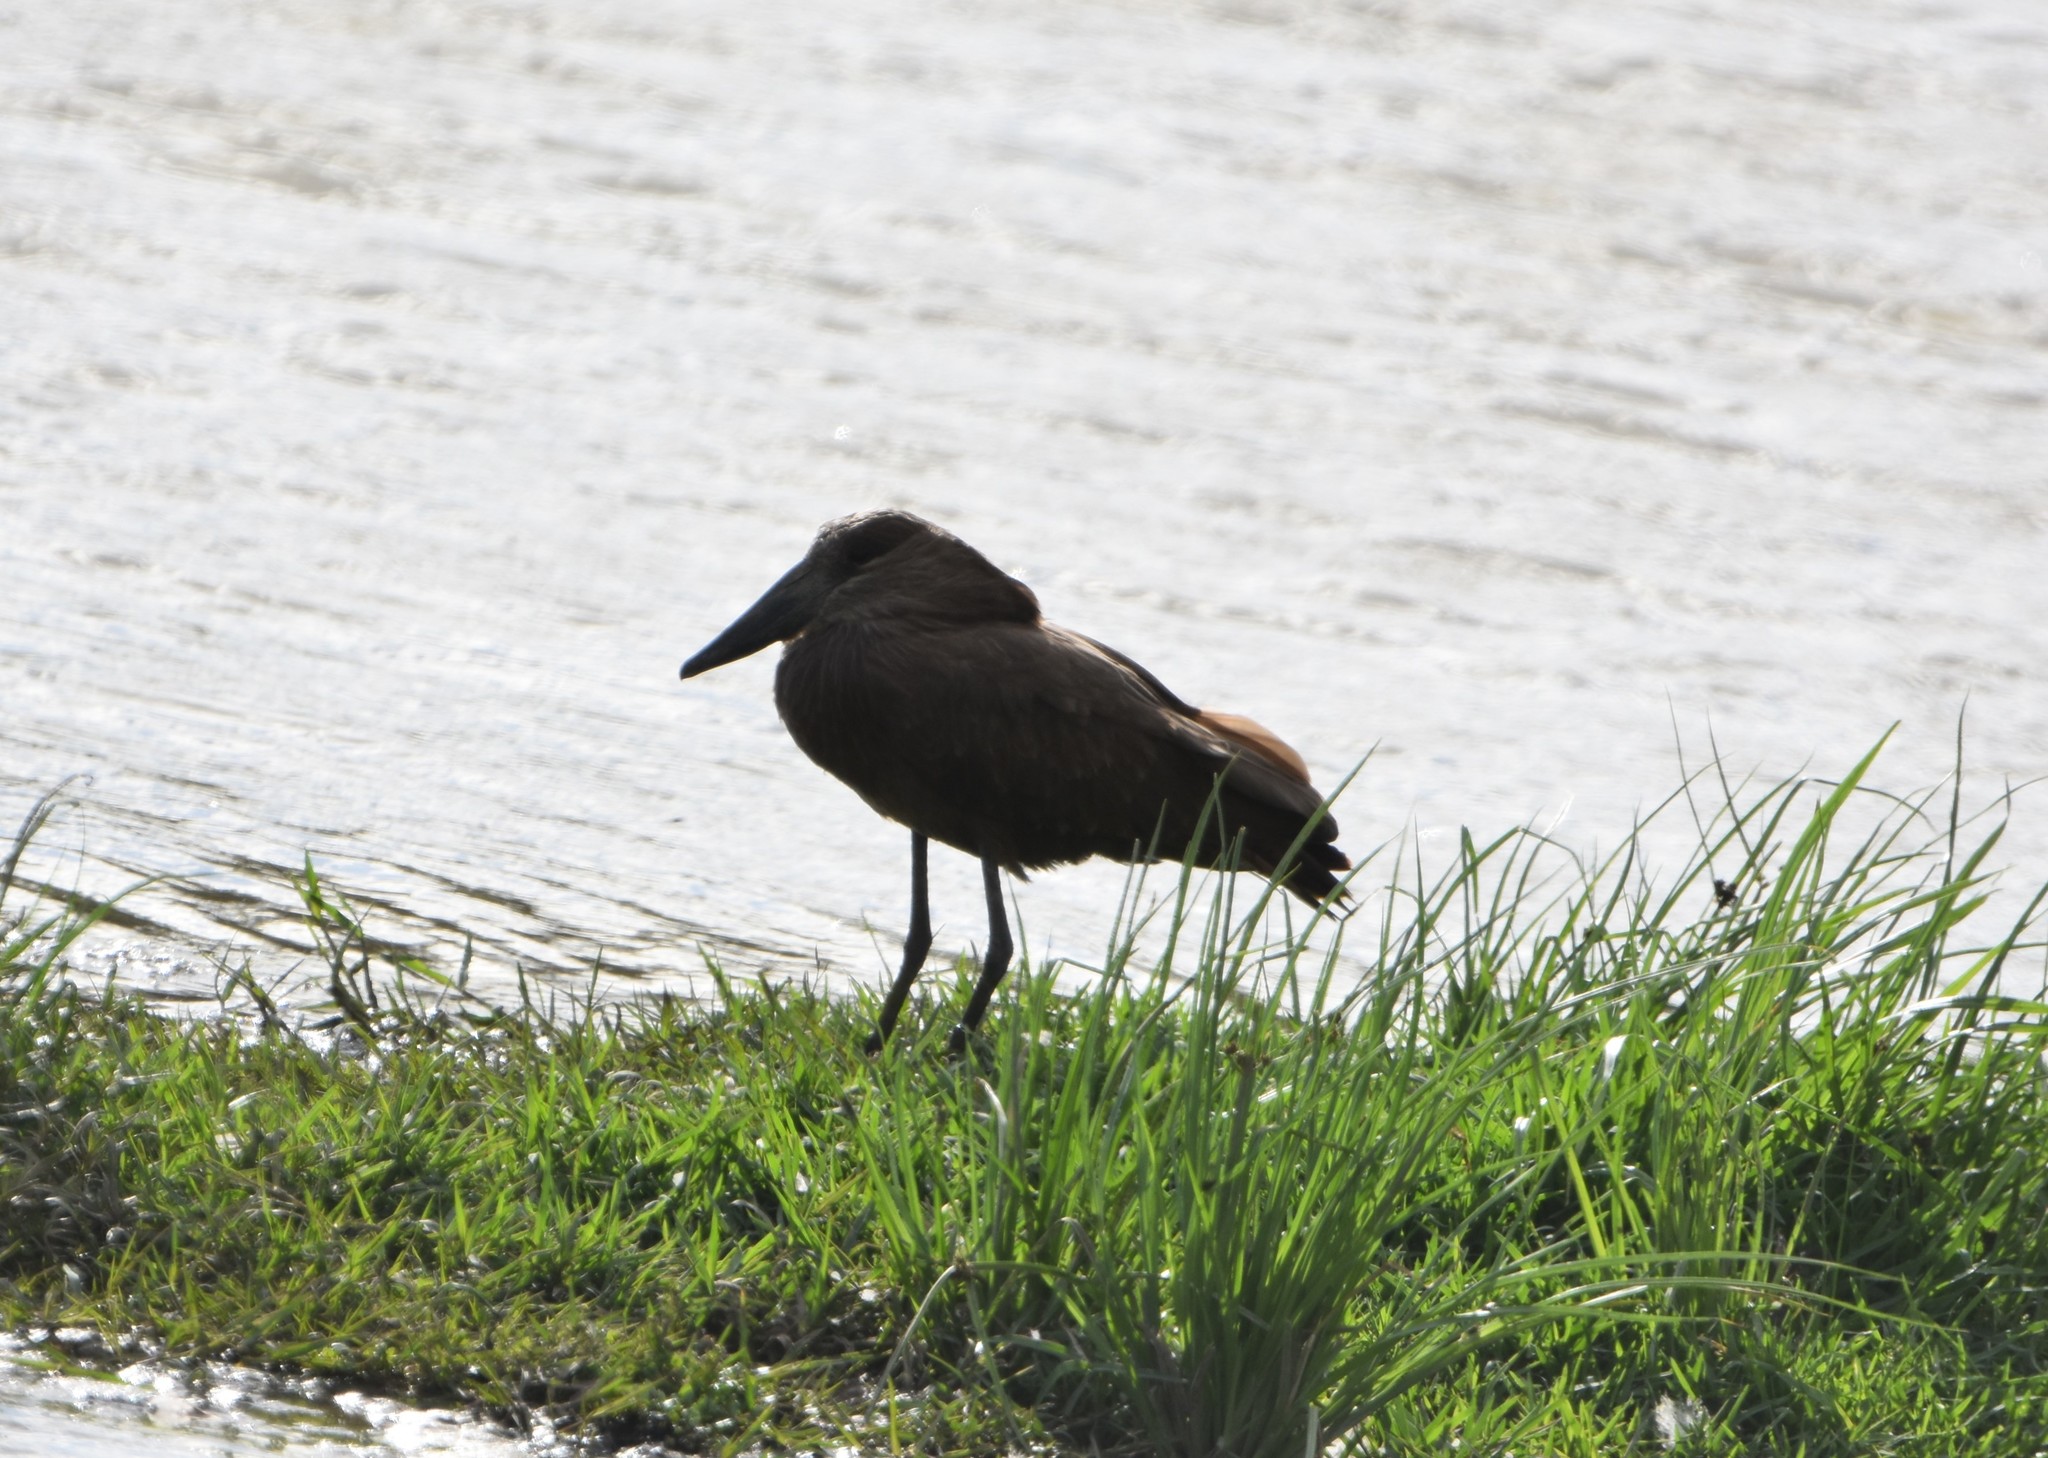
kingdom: Animalia
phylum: Chordata
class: Aves
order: Pelecaniformes
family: Scopidae
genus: Scopus
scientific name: Scopus umbretta
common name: Hamerkop
